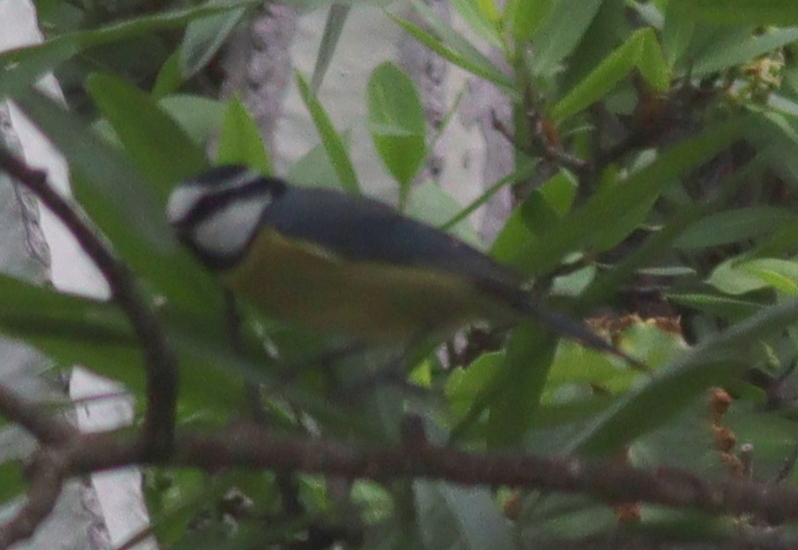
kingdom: Animalia
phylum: Chordata
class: Aves
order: Passeriformes
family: Paridae
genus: Cyanistes
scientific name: Cyanistes teneriffae
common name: African blue tit
